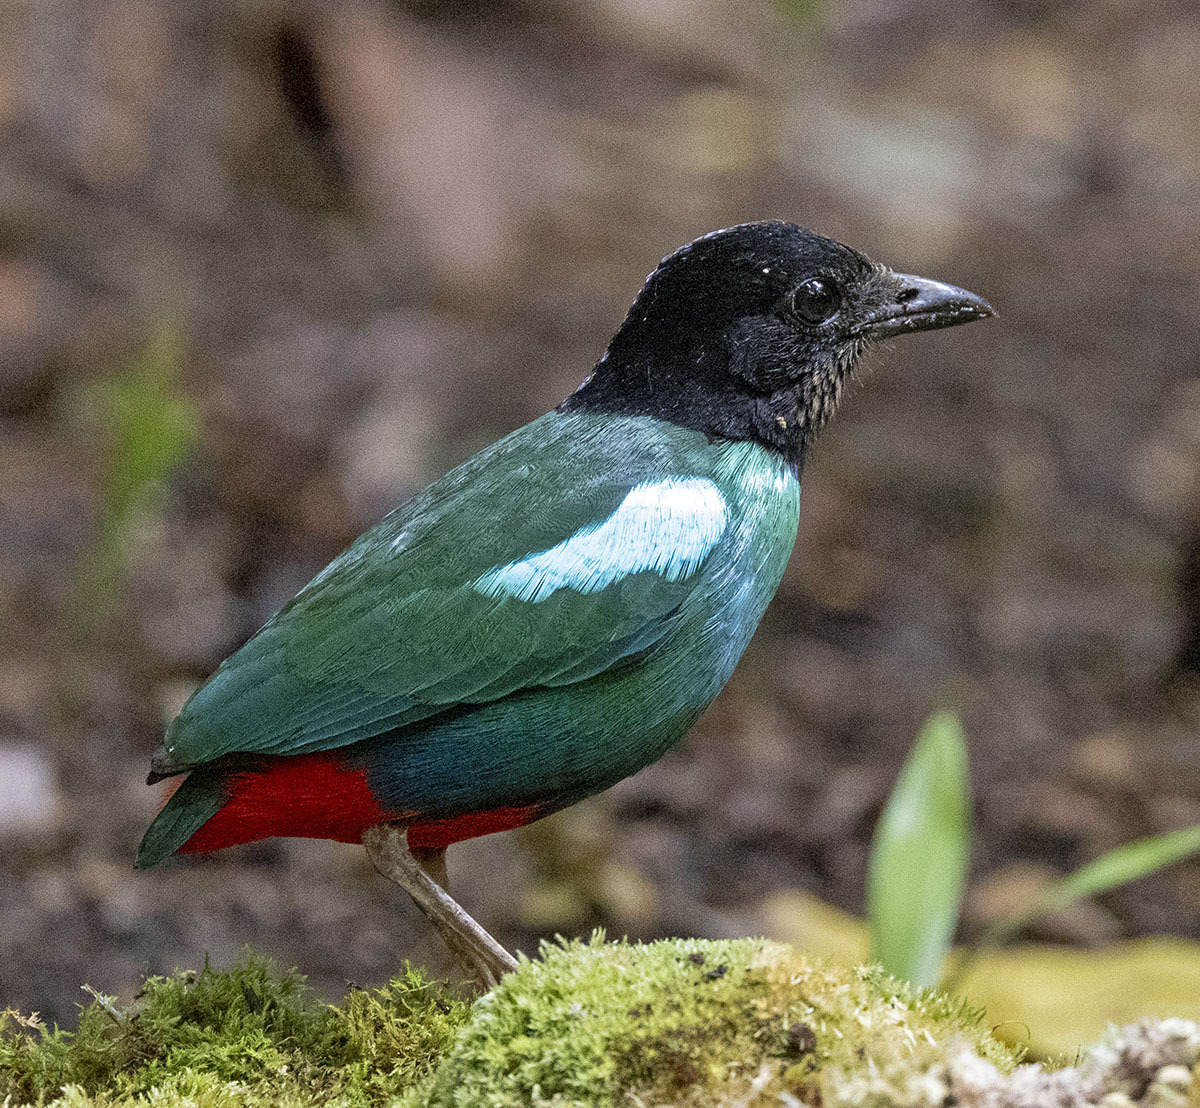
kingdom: Animalia
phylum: Chordata
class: Aves
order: Passeriformes
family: Pittidae
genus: Pitta
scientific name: Pitta novaeguineae
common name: Eastern hooded pitta
